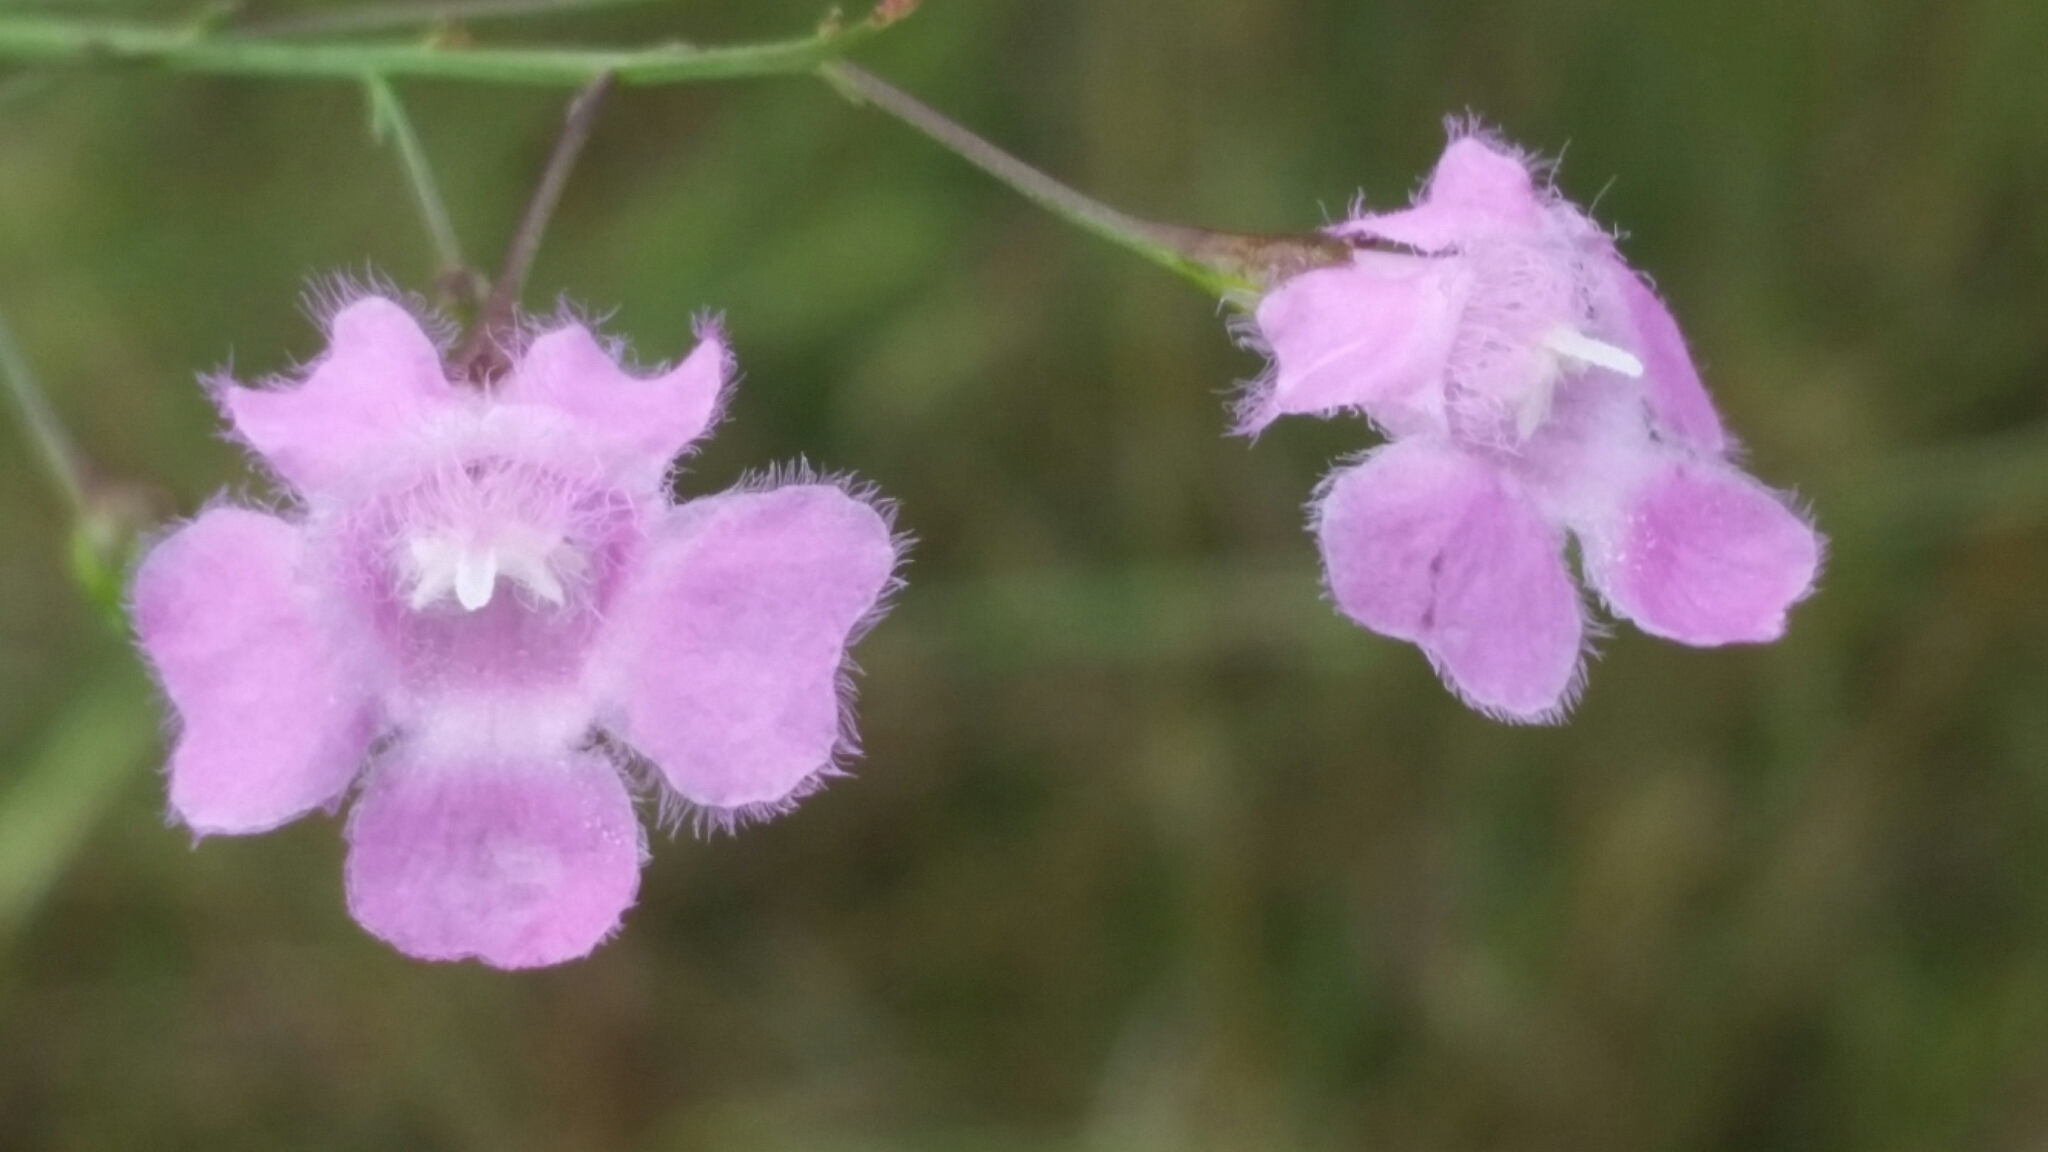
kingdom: Plantae
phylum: Tracheophyta
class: Magnoliopsida
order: Lamiales
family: Orobanchaceae
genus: Agalinis
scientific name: Agalinis obtusifolia
